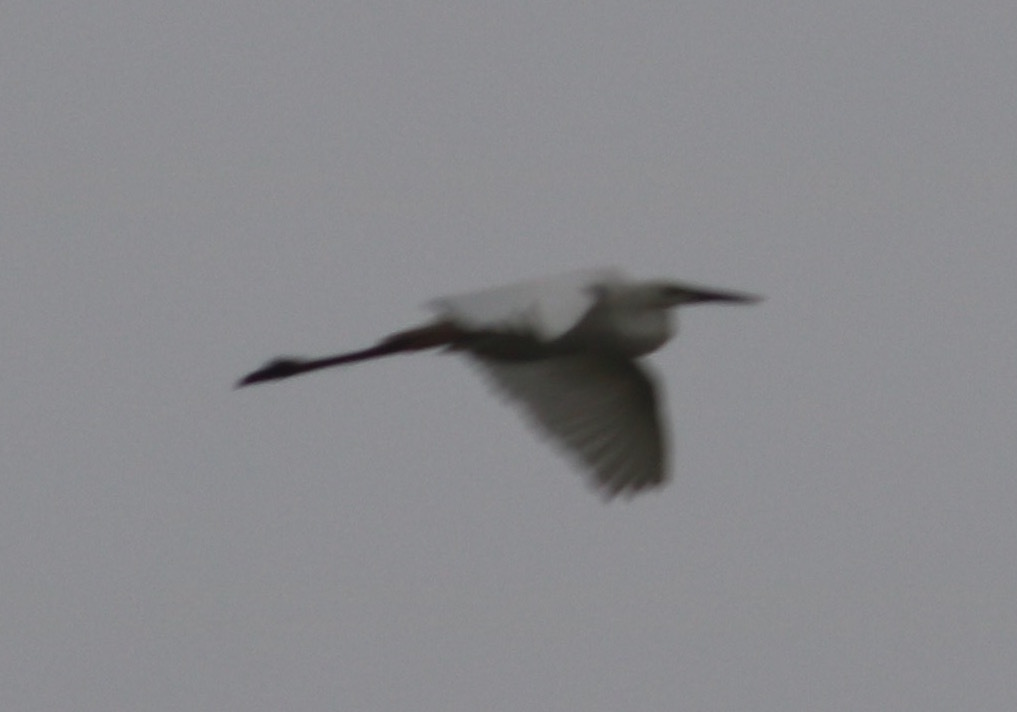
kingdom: Animalia
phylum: Chordata
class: Aves
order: Pelecaniformes
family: Ardeidae
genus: Egretta
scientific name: Egretta garzetta
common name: Little egret
